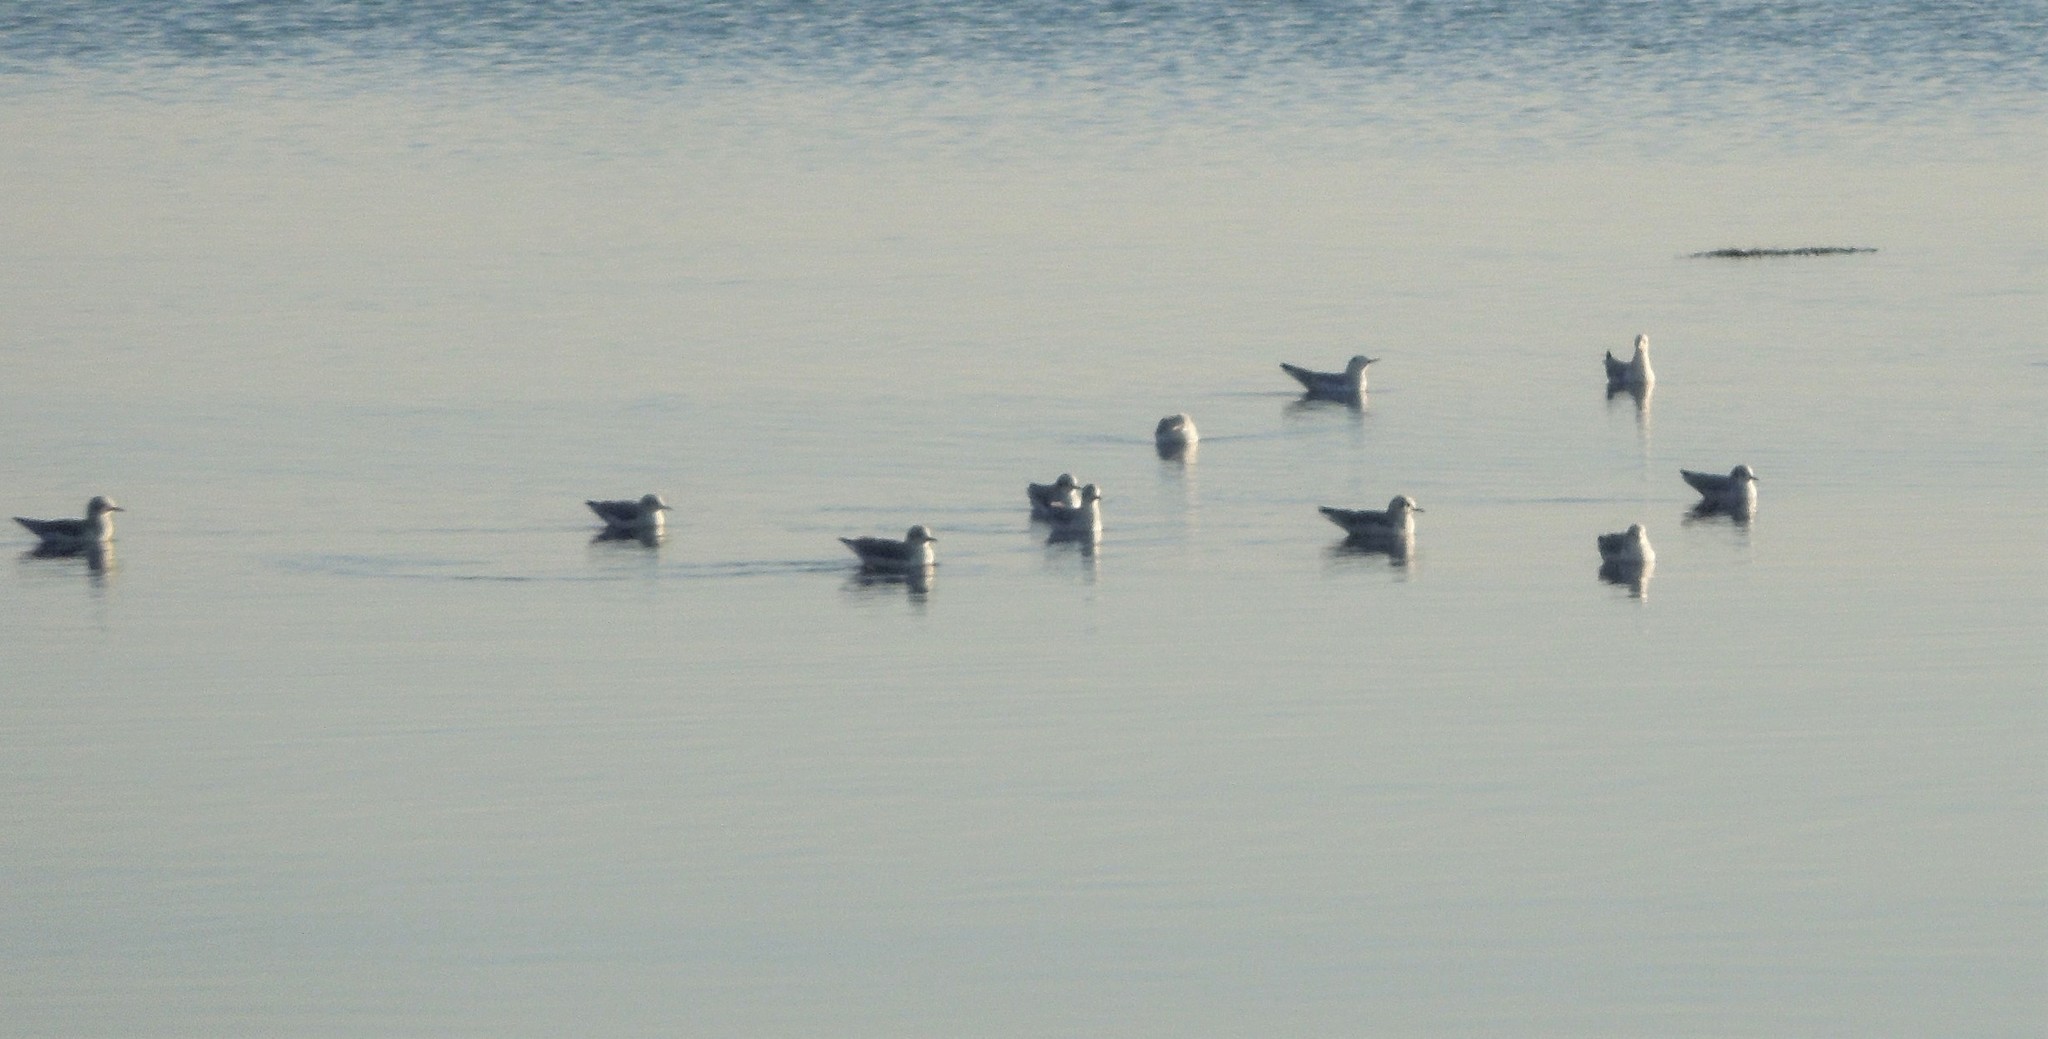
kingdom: Animalia
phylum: Chordata
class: Aves
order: Charadriiformes
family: Laridae
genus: Chroicocephalus
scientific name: Chroicocephalus philadelphia
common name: Bonaparte's gull
